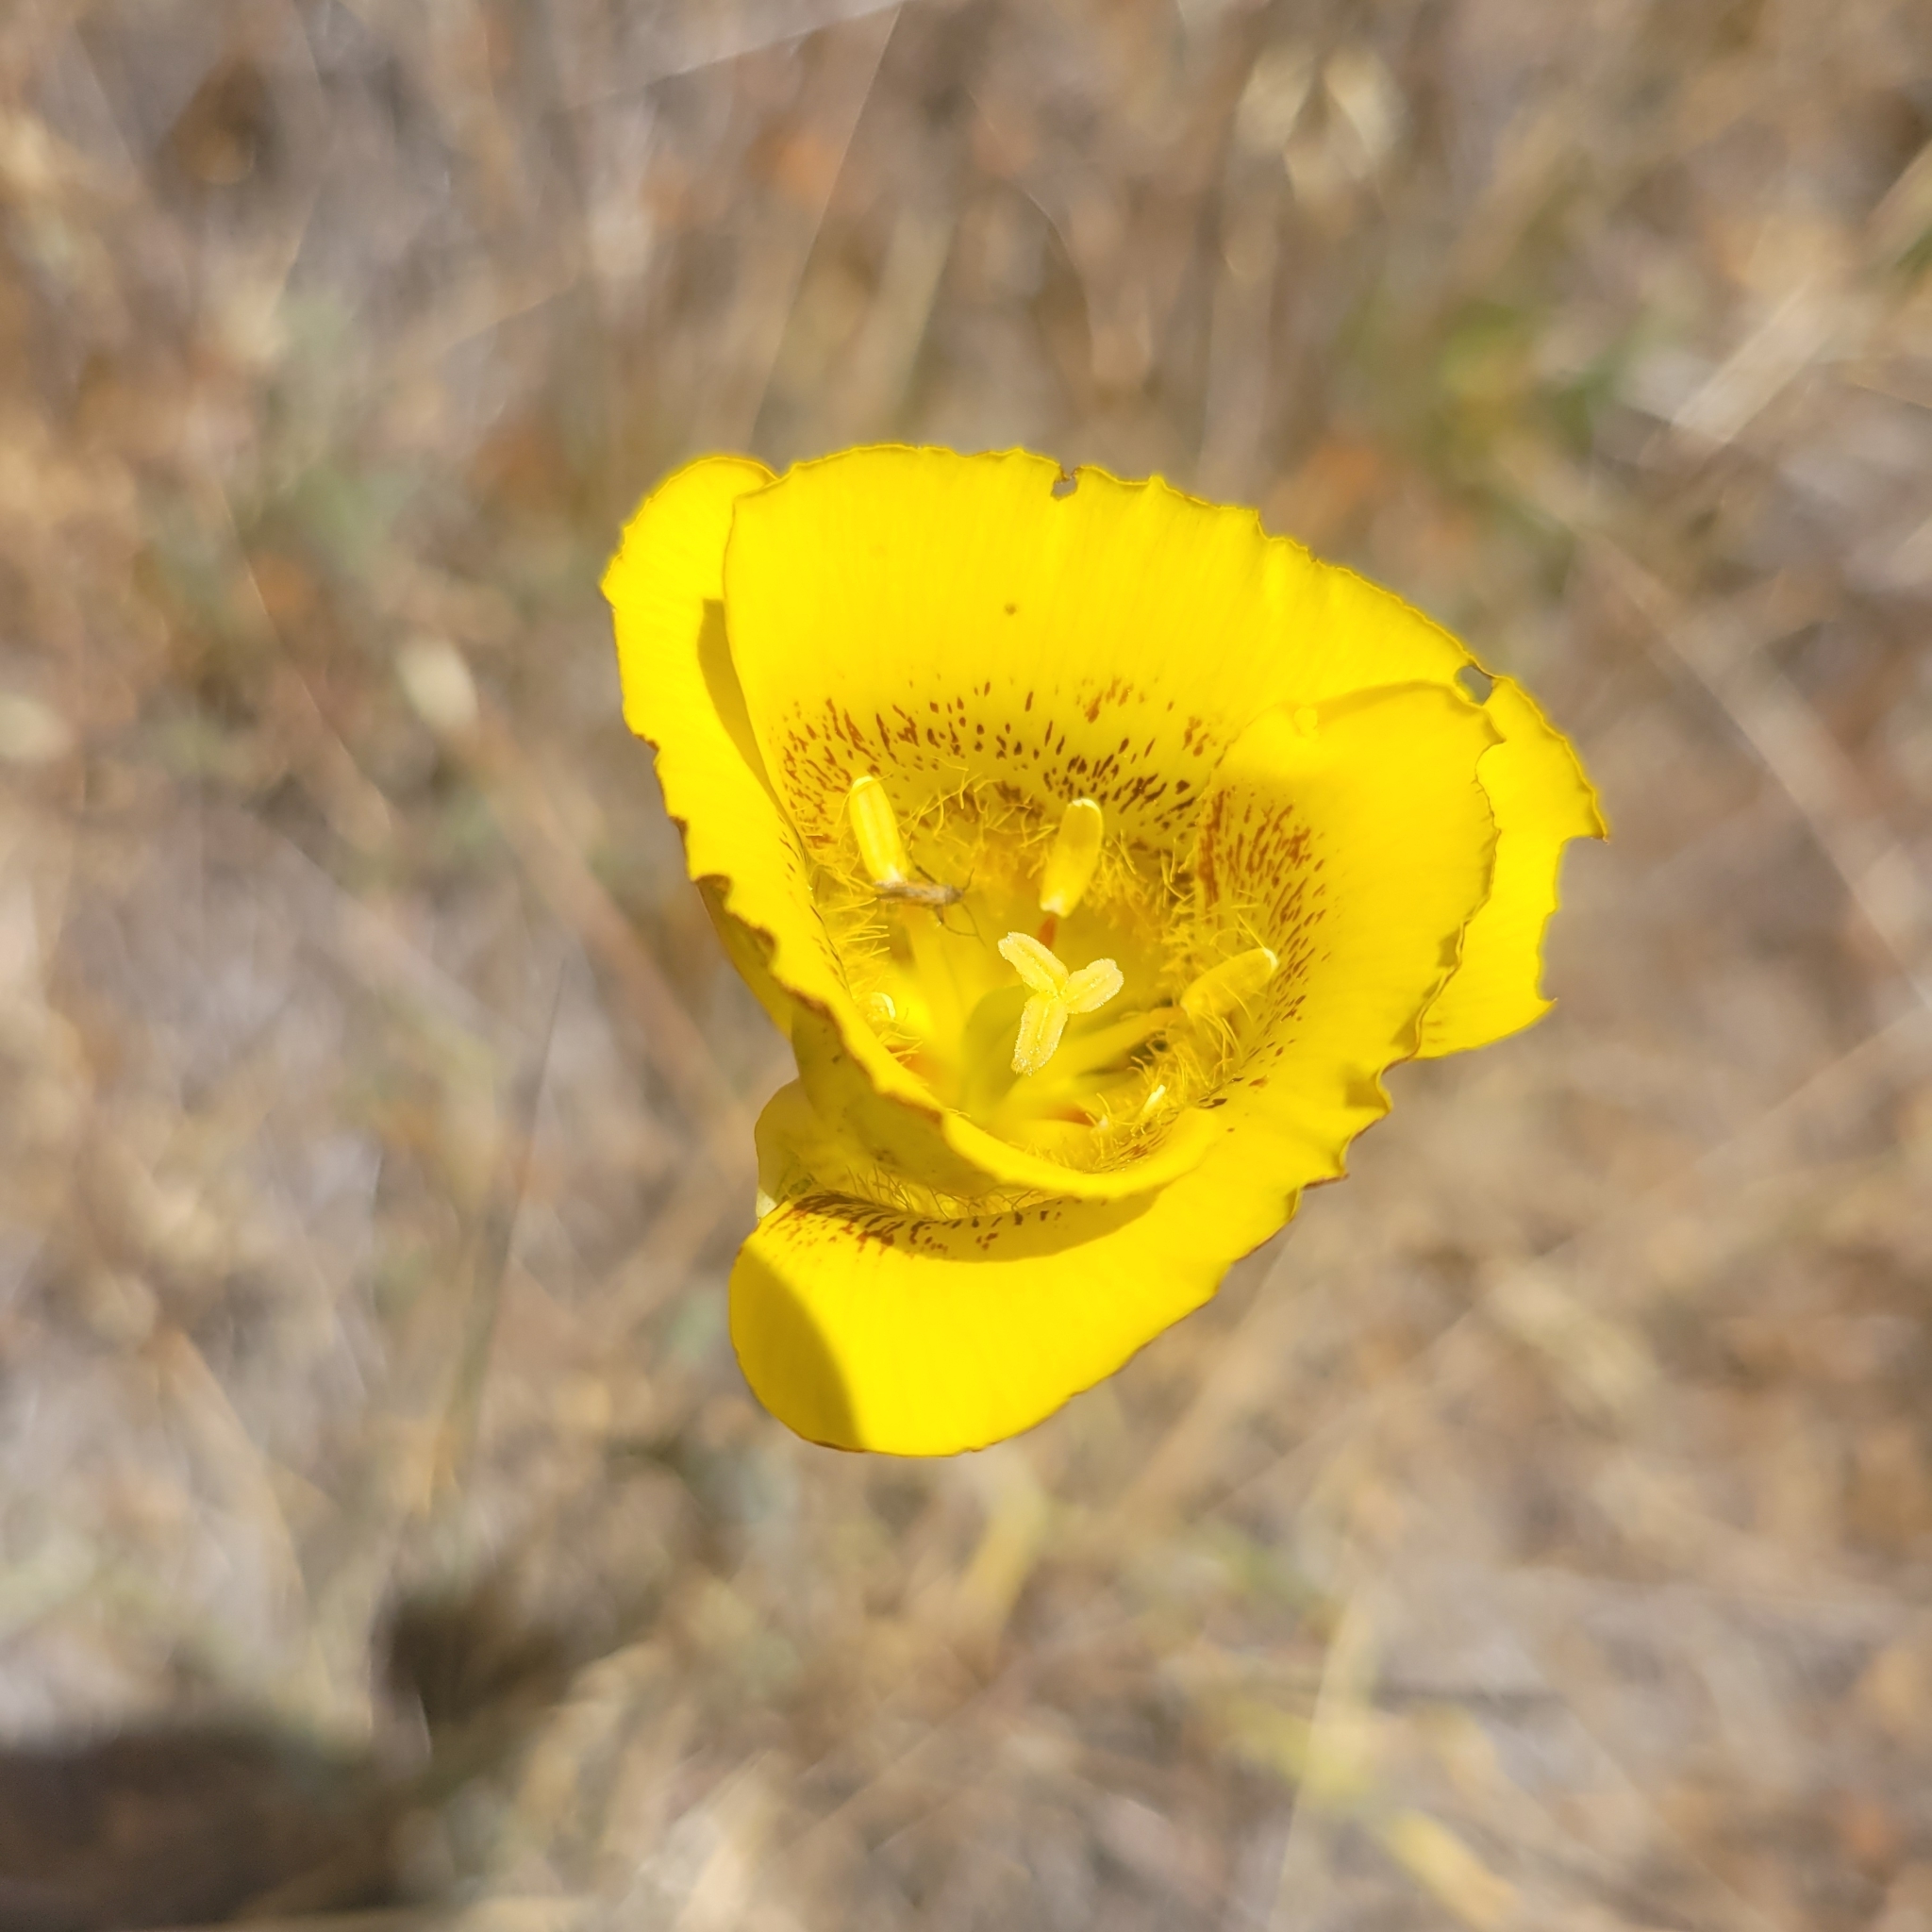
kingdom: Plantae
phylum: Tracheophyta
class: Liliopsida
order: Liliales
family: Liliaceae
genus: Calochortus
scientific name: Calochortus luteus
